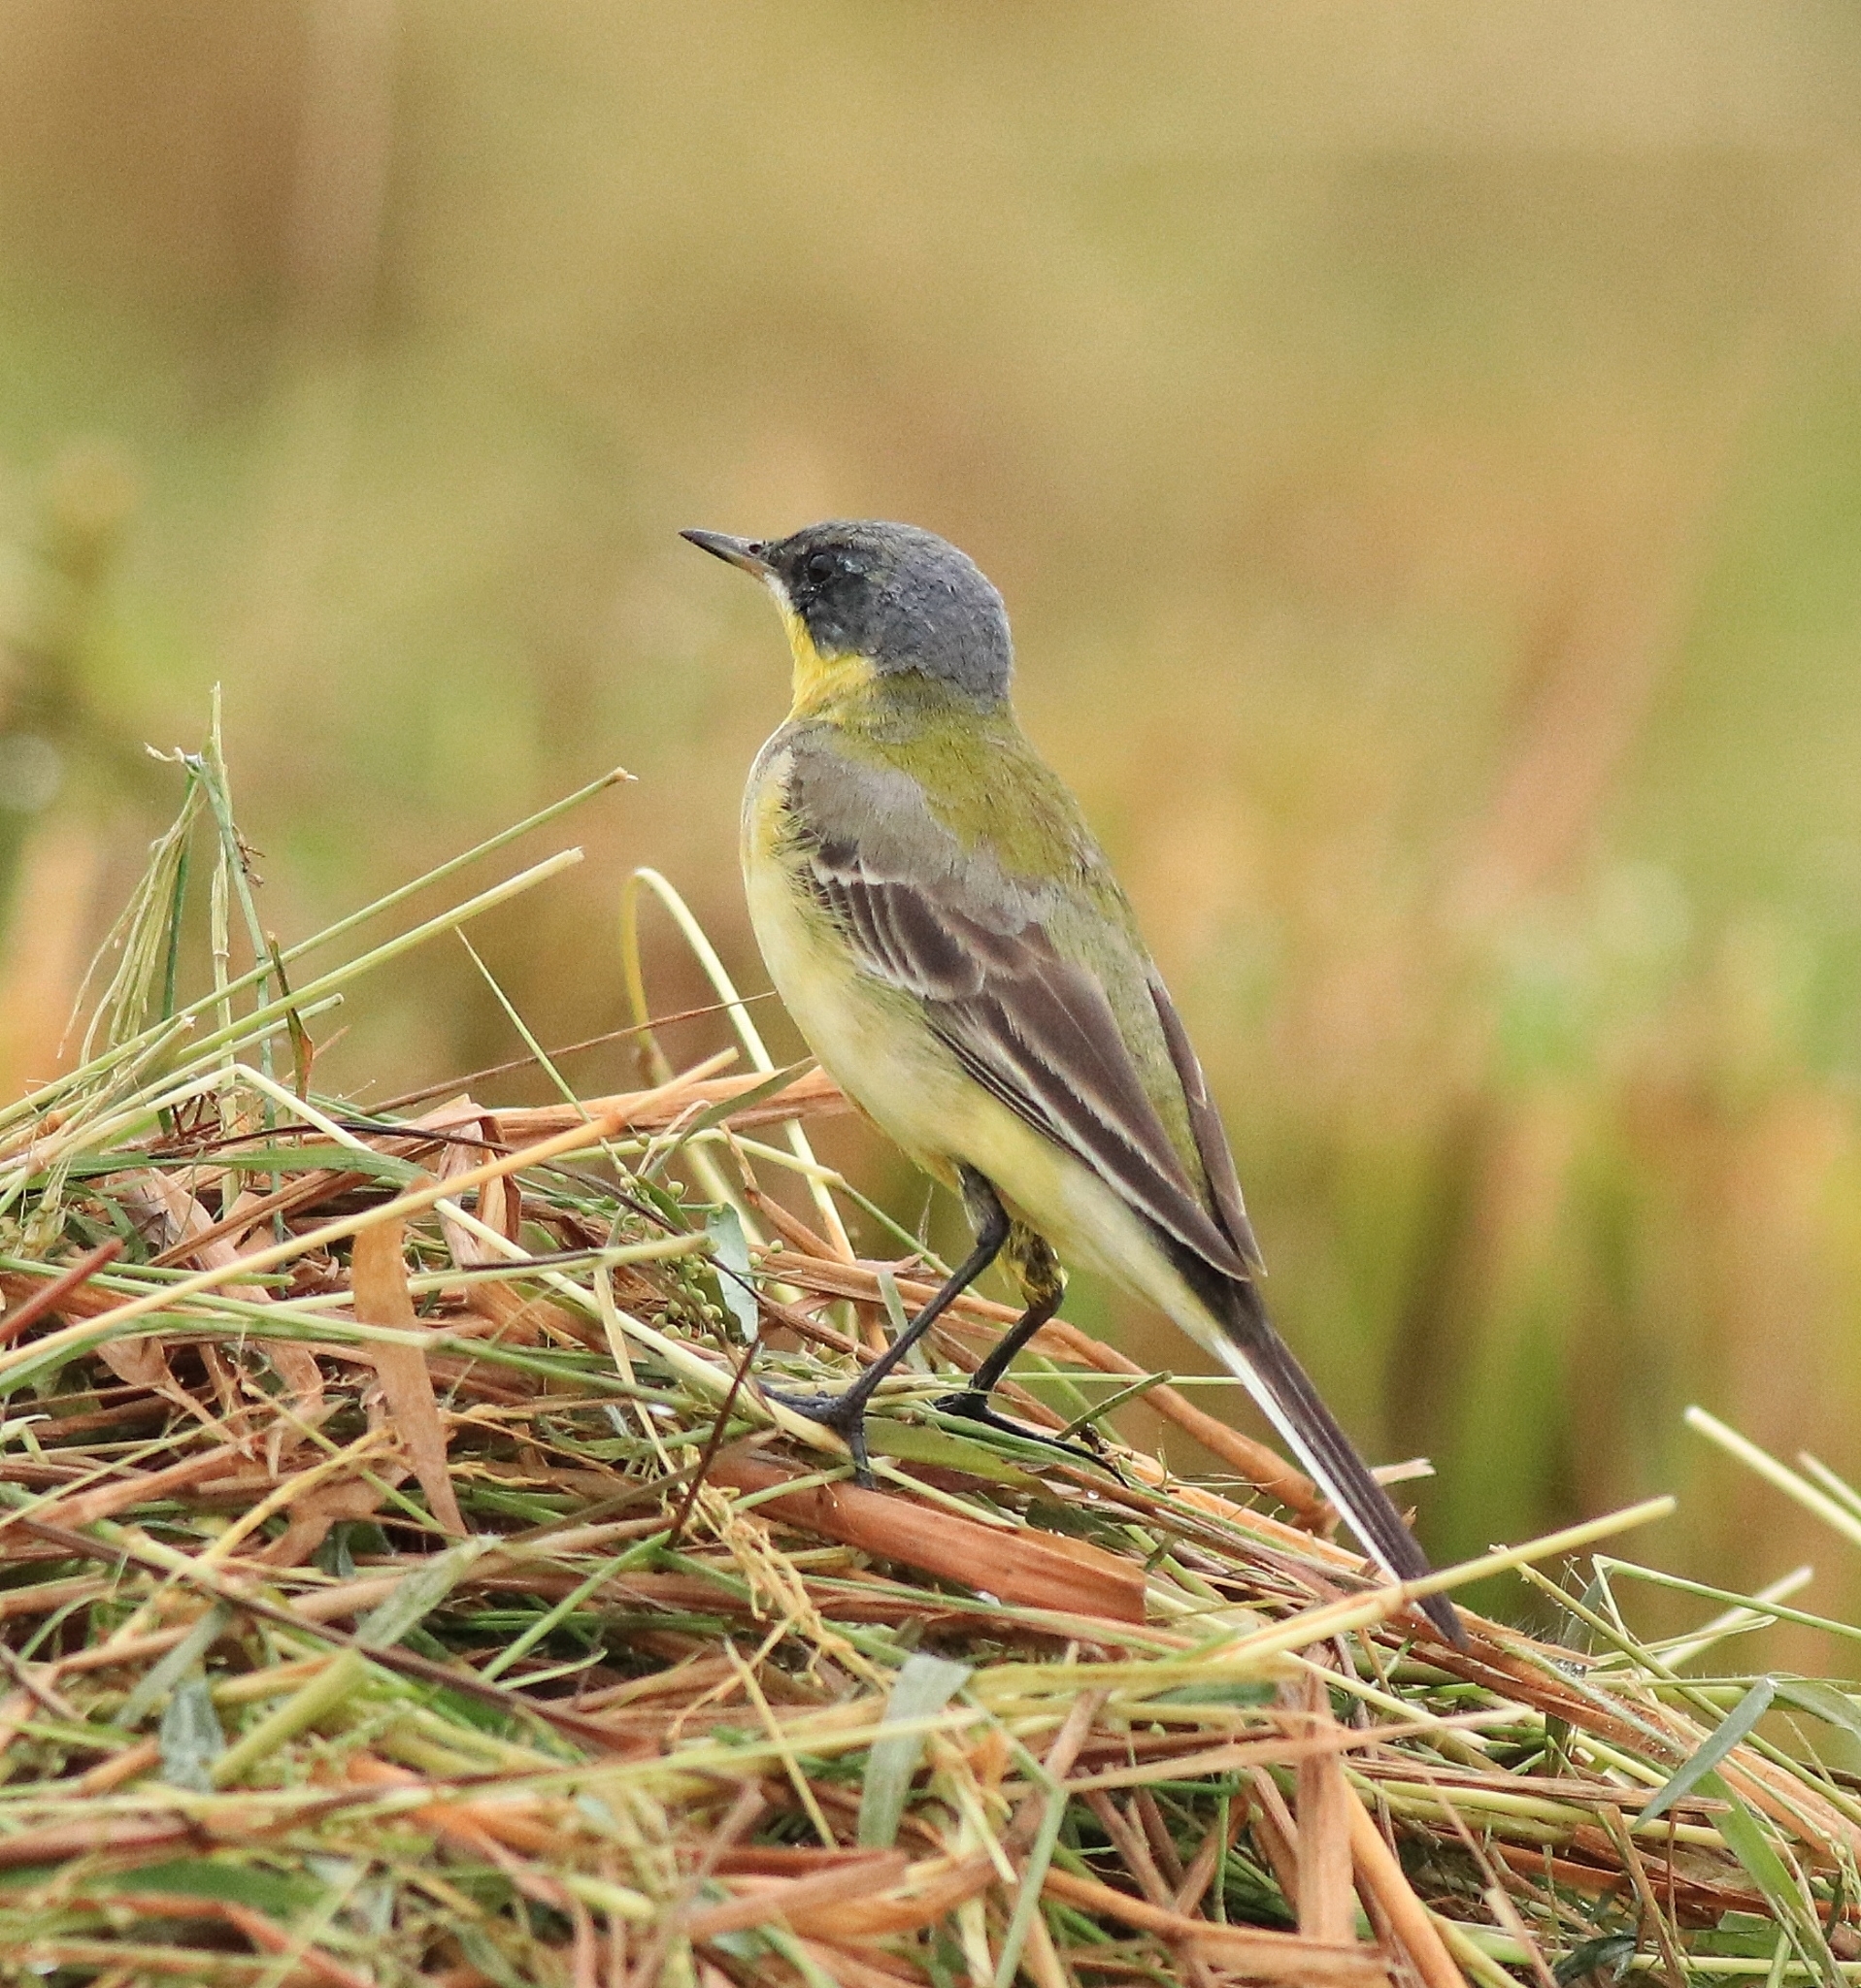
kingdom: Animalia
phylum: Chordata
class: Aves
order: Passeriformes
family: Motacillidae
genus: Motacilla
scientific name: Motacilla flava
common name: Western yellow wagtail
